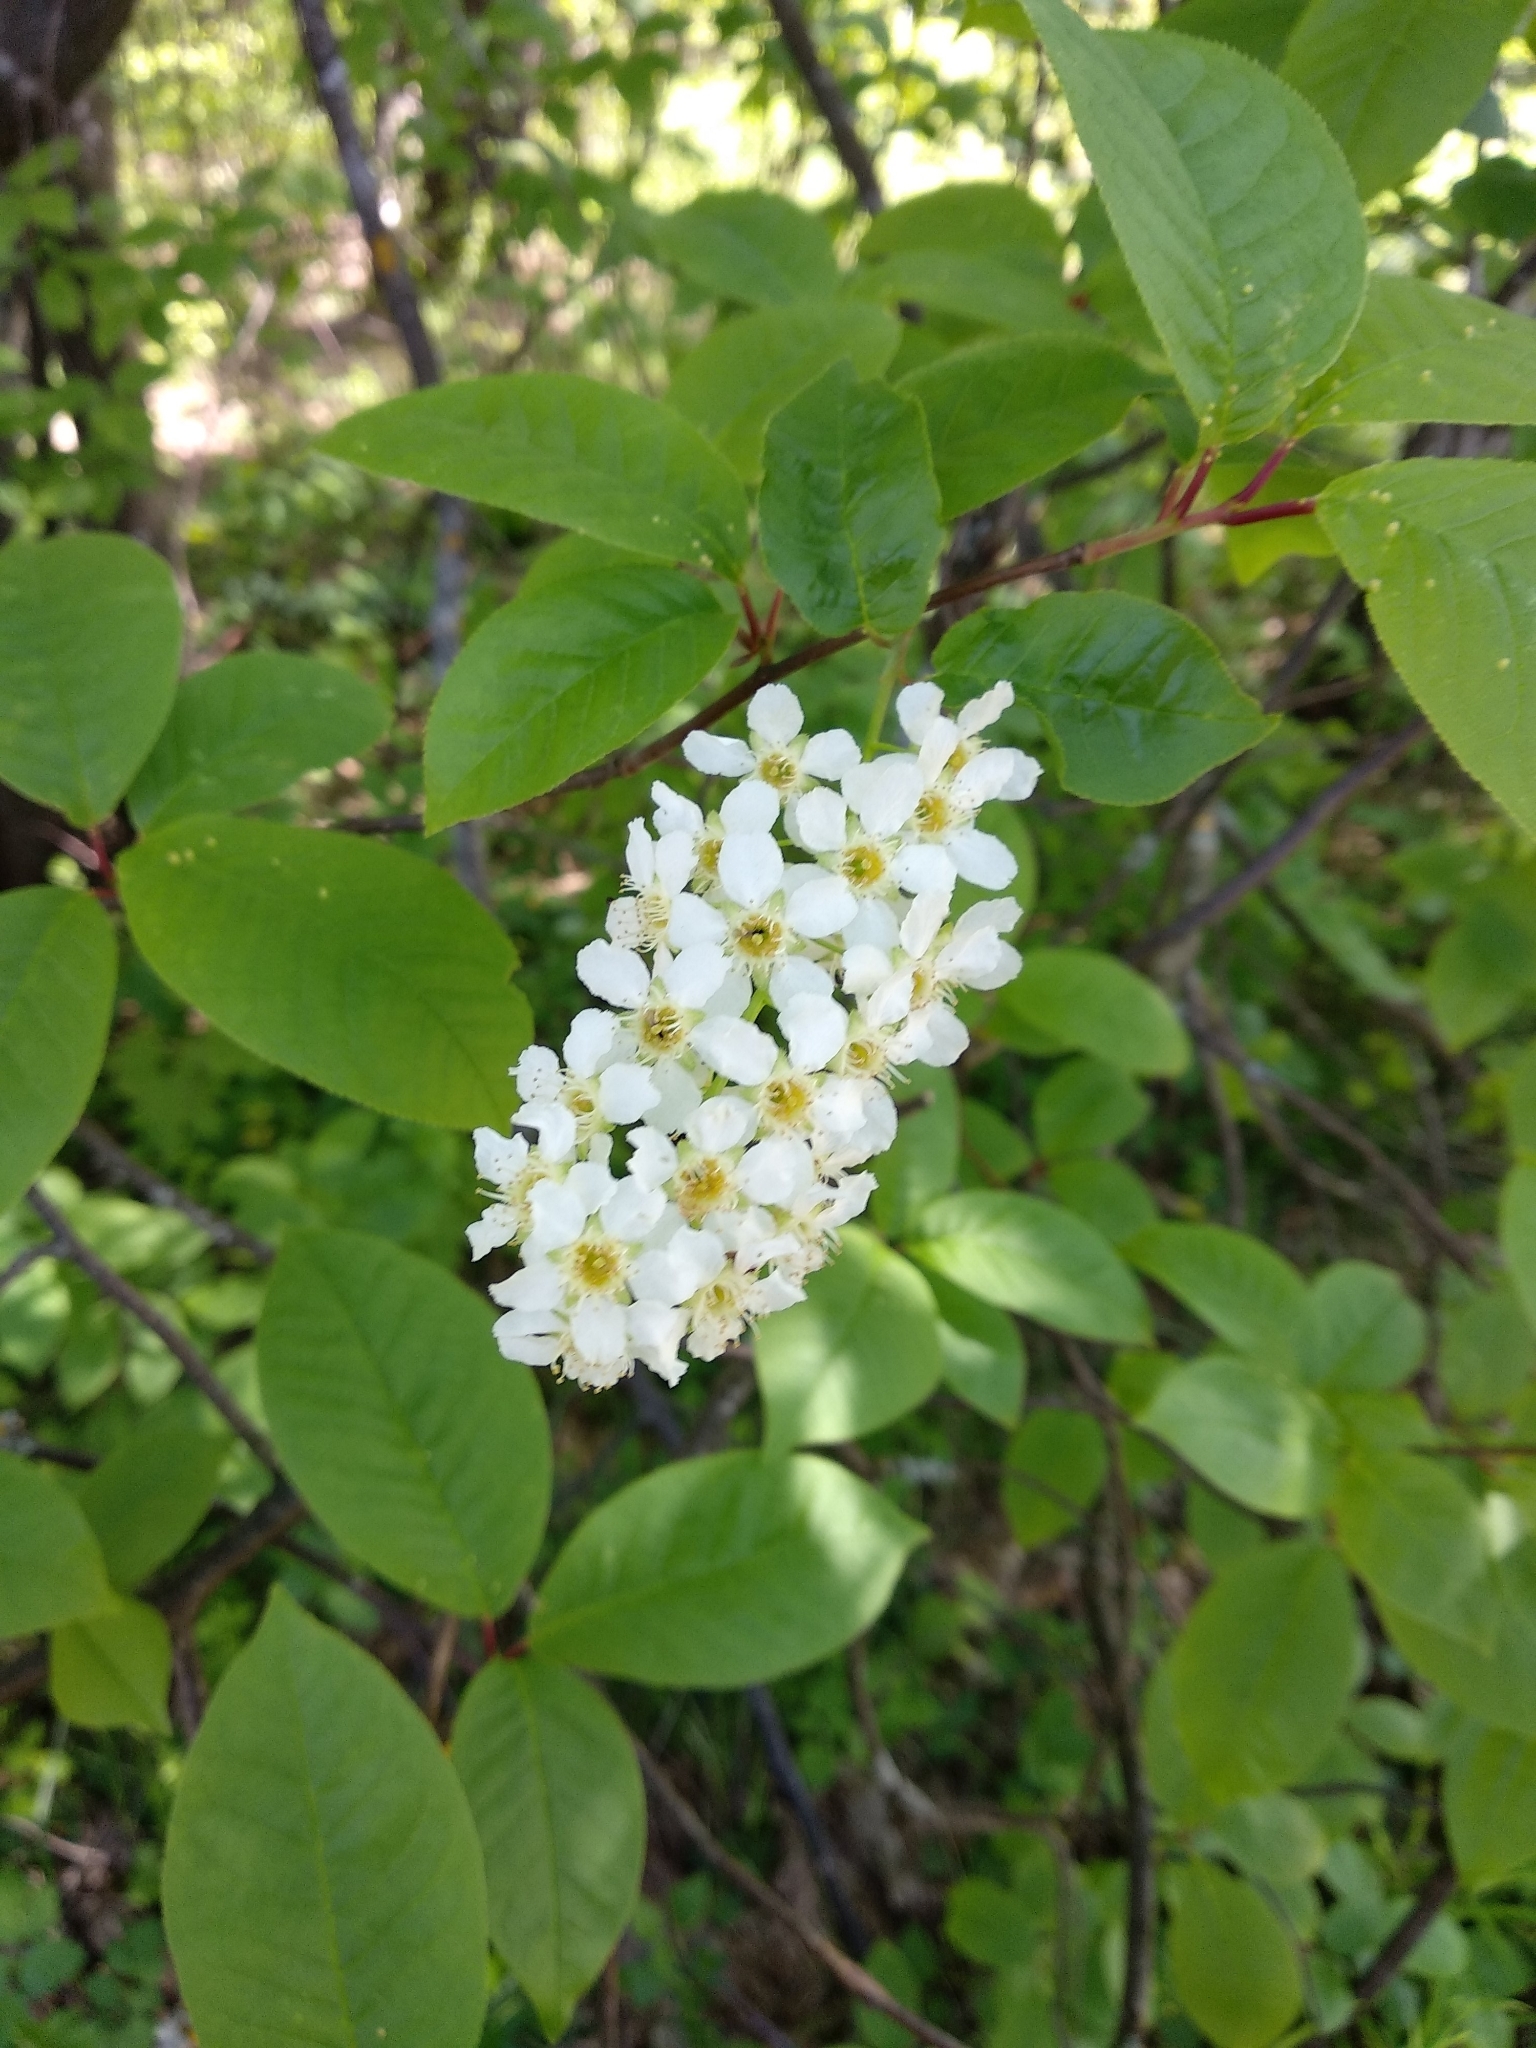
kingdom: Plantae
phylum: Tracheophyta
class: Magnoliopsida
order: Rosales
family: Rosaceae
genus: Prunus
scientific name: Prunus padus
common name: Bird cherry
